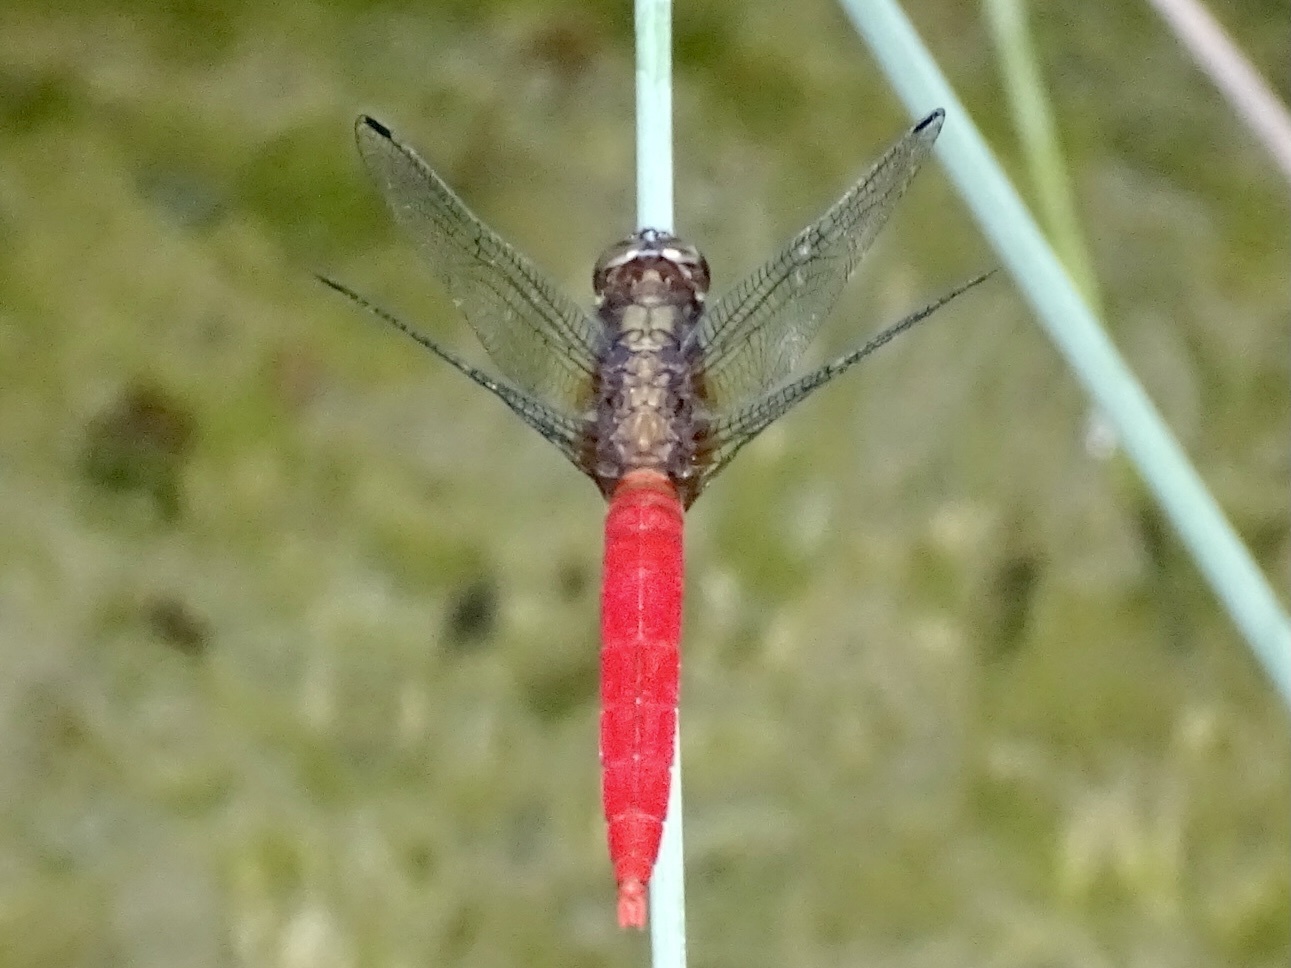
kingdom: Animalia
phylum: Arthropoda
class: Insecta
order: Odonata
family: Libellulidae
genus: Orthetrum
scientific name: Orthetrum chrysis
